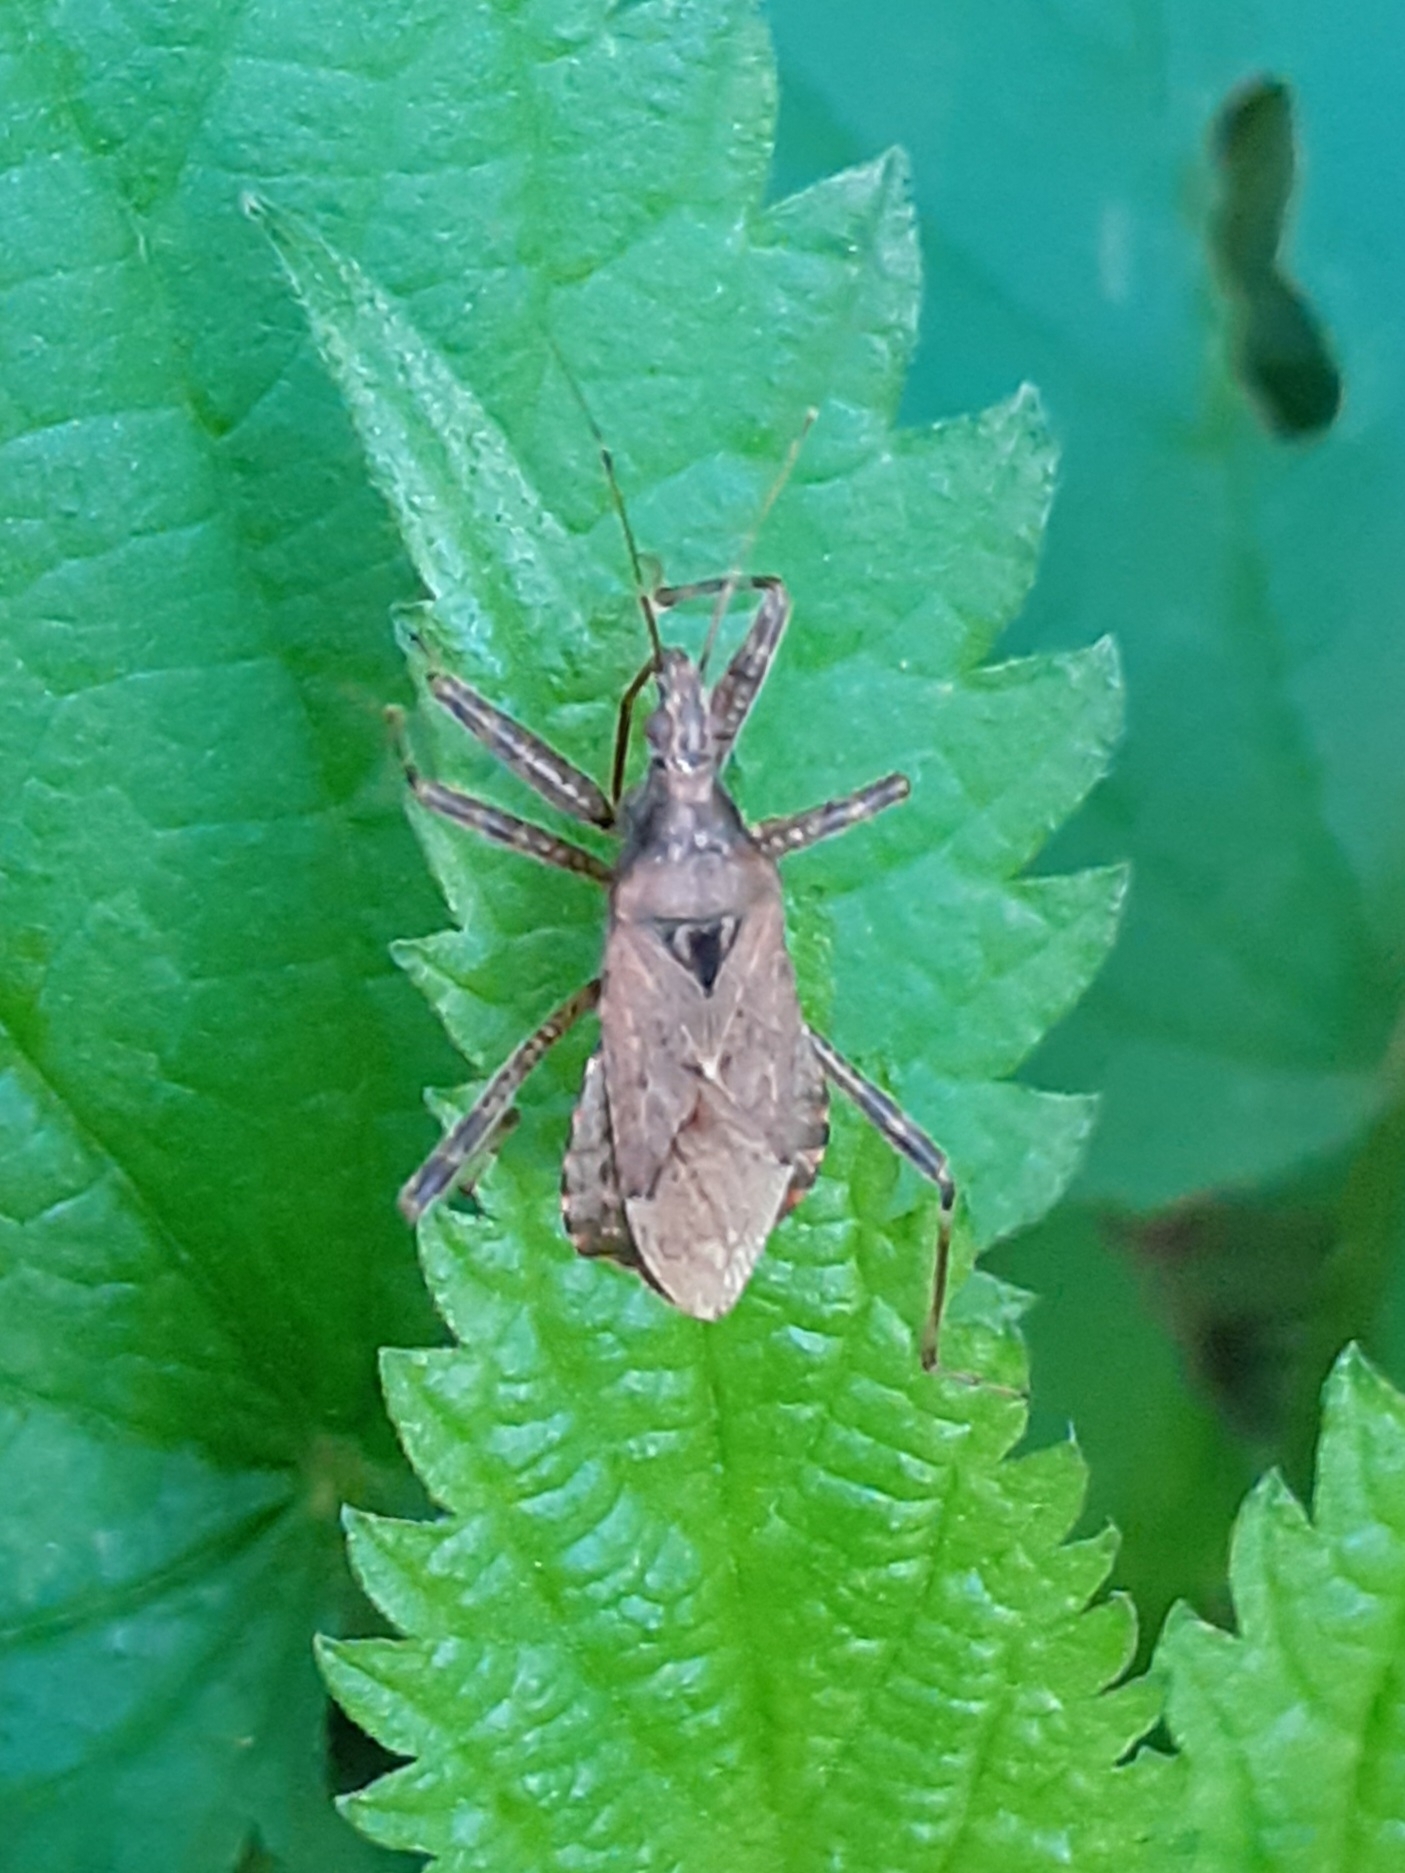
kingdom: Animalia
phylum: Arthropoda
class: Insecta
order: Hemiptera
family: Nabidae
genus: Himacerus
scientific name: Himacerus apterus
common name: Tree damsel bug
